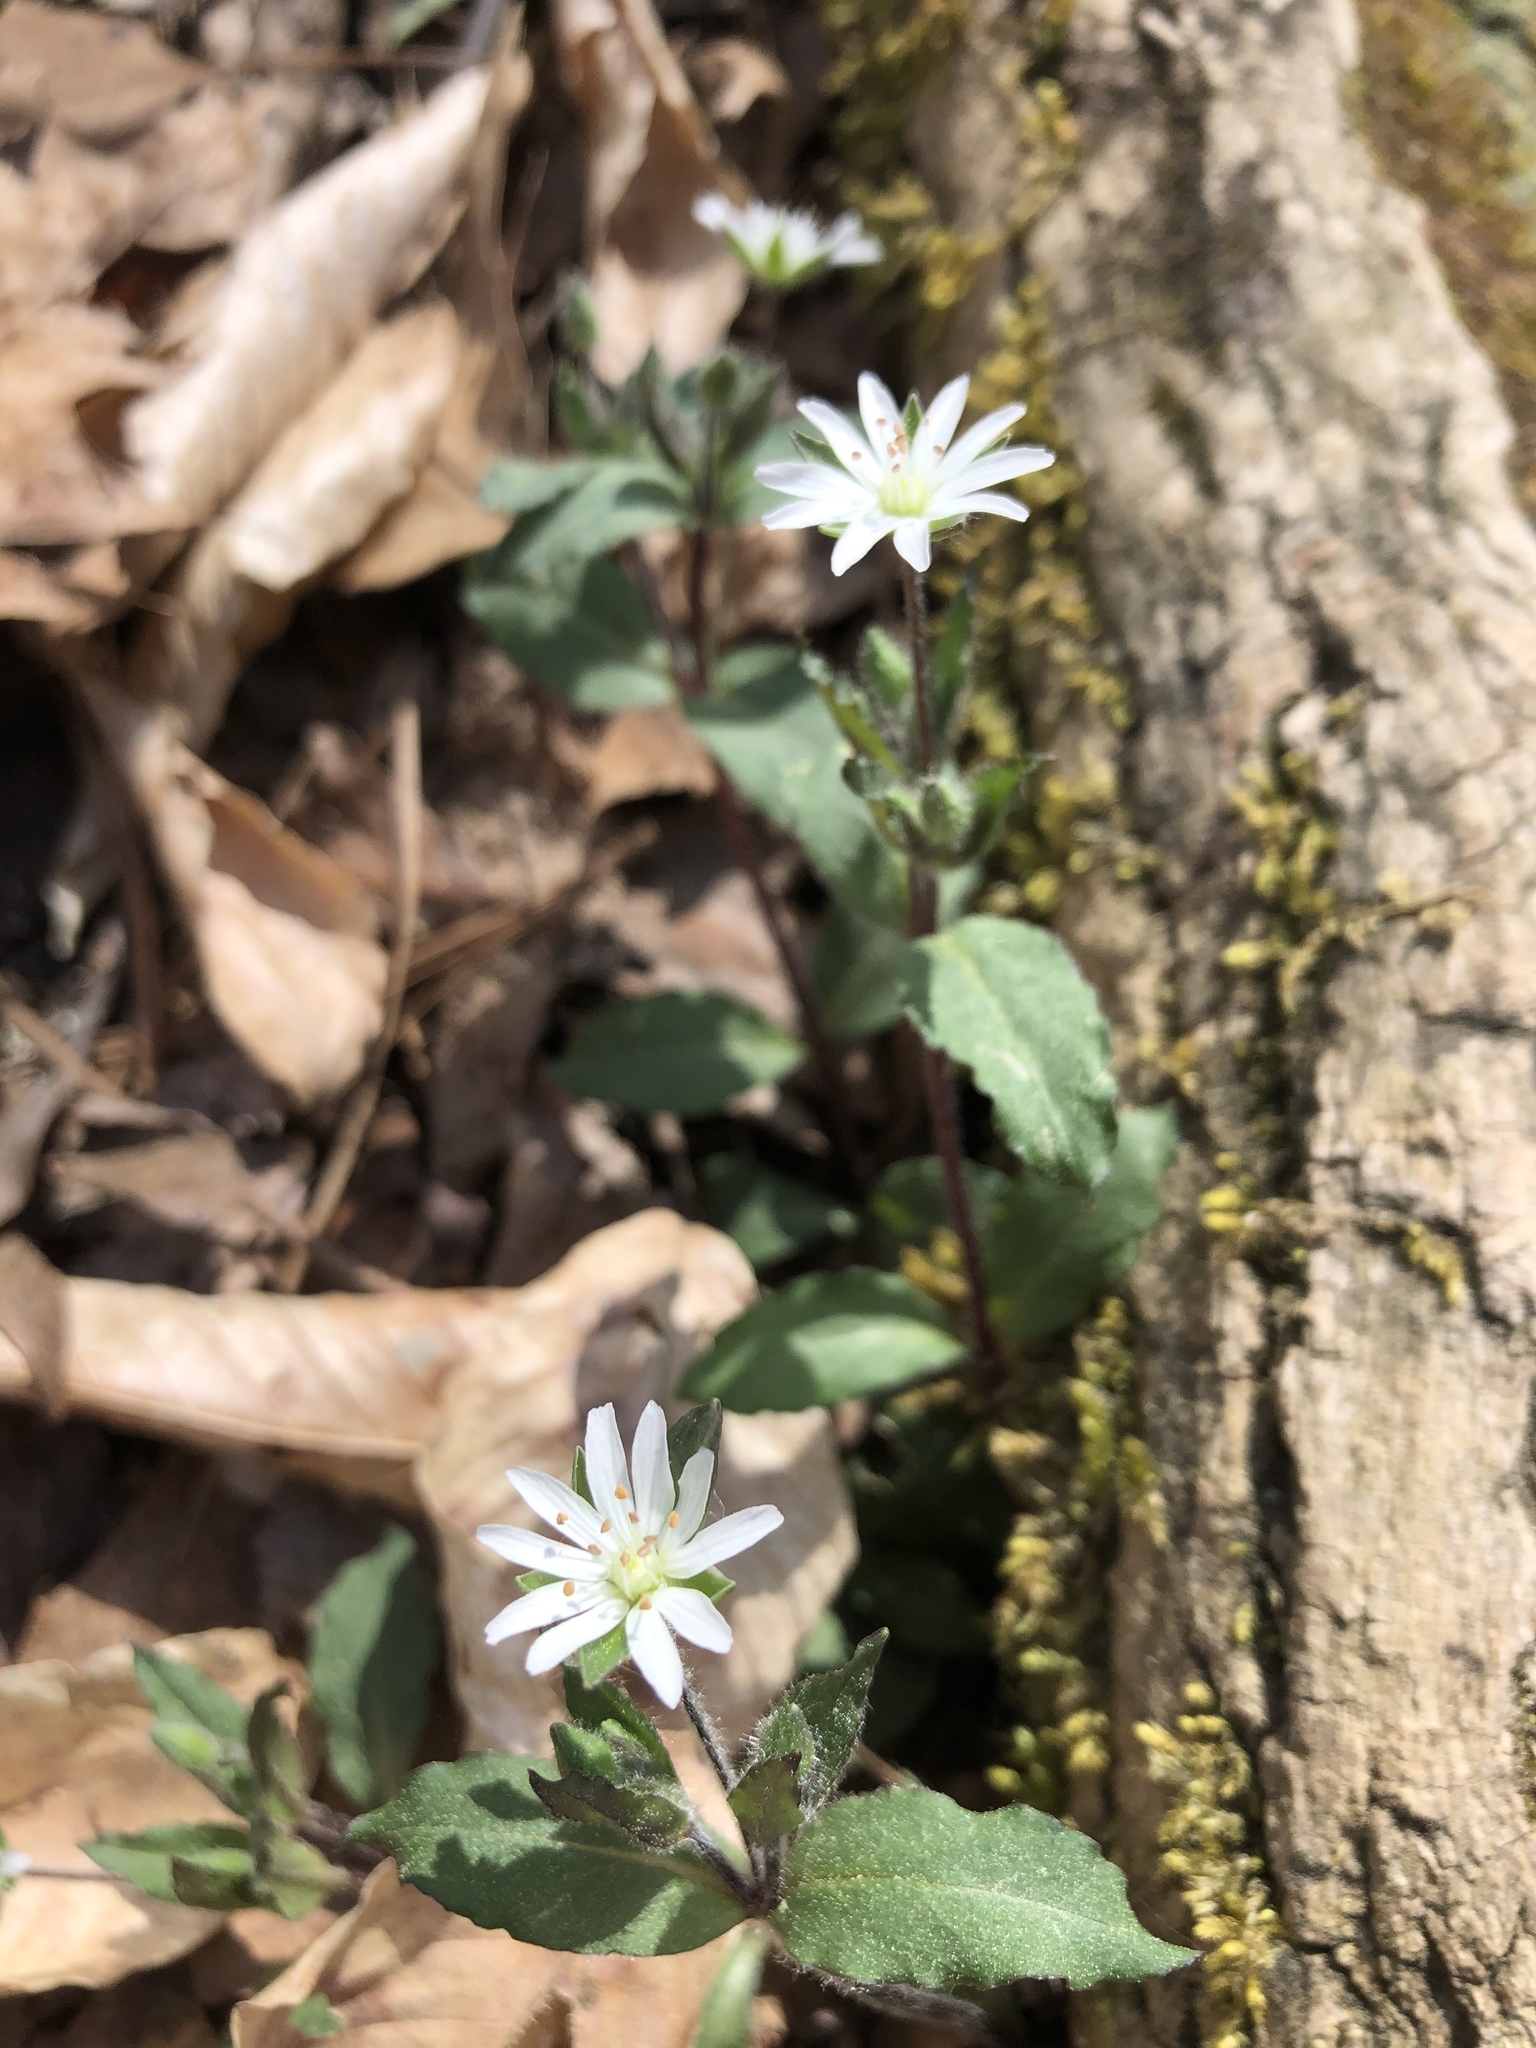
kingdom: Plantae
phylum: Tracheophyta
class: Magnoliopsida
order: Caryophyllales
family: Caryophyllaceae
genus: Stellaria
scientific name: Stellaria pubera
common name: Star chickweed
